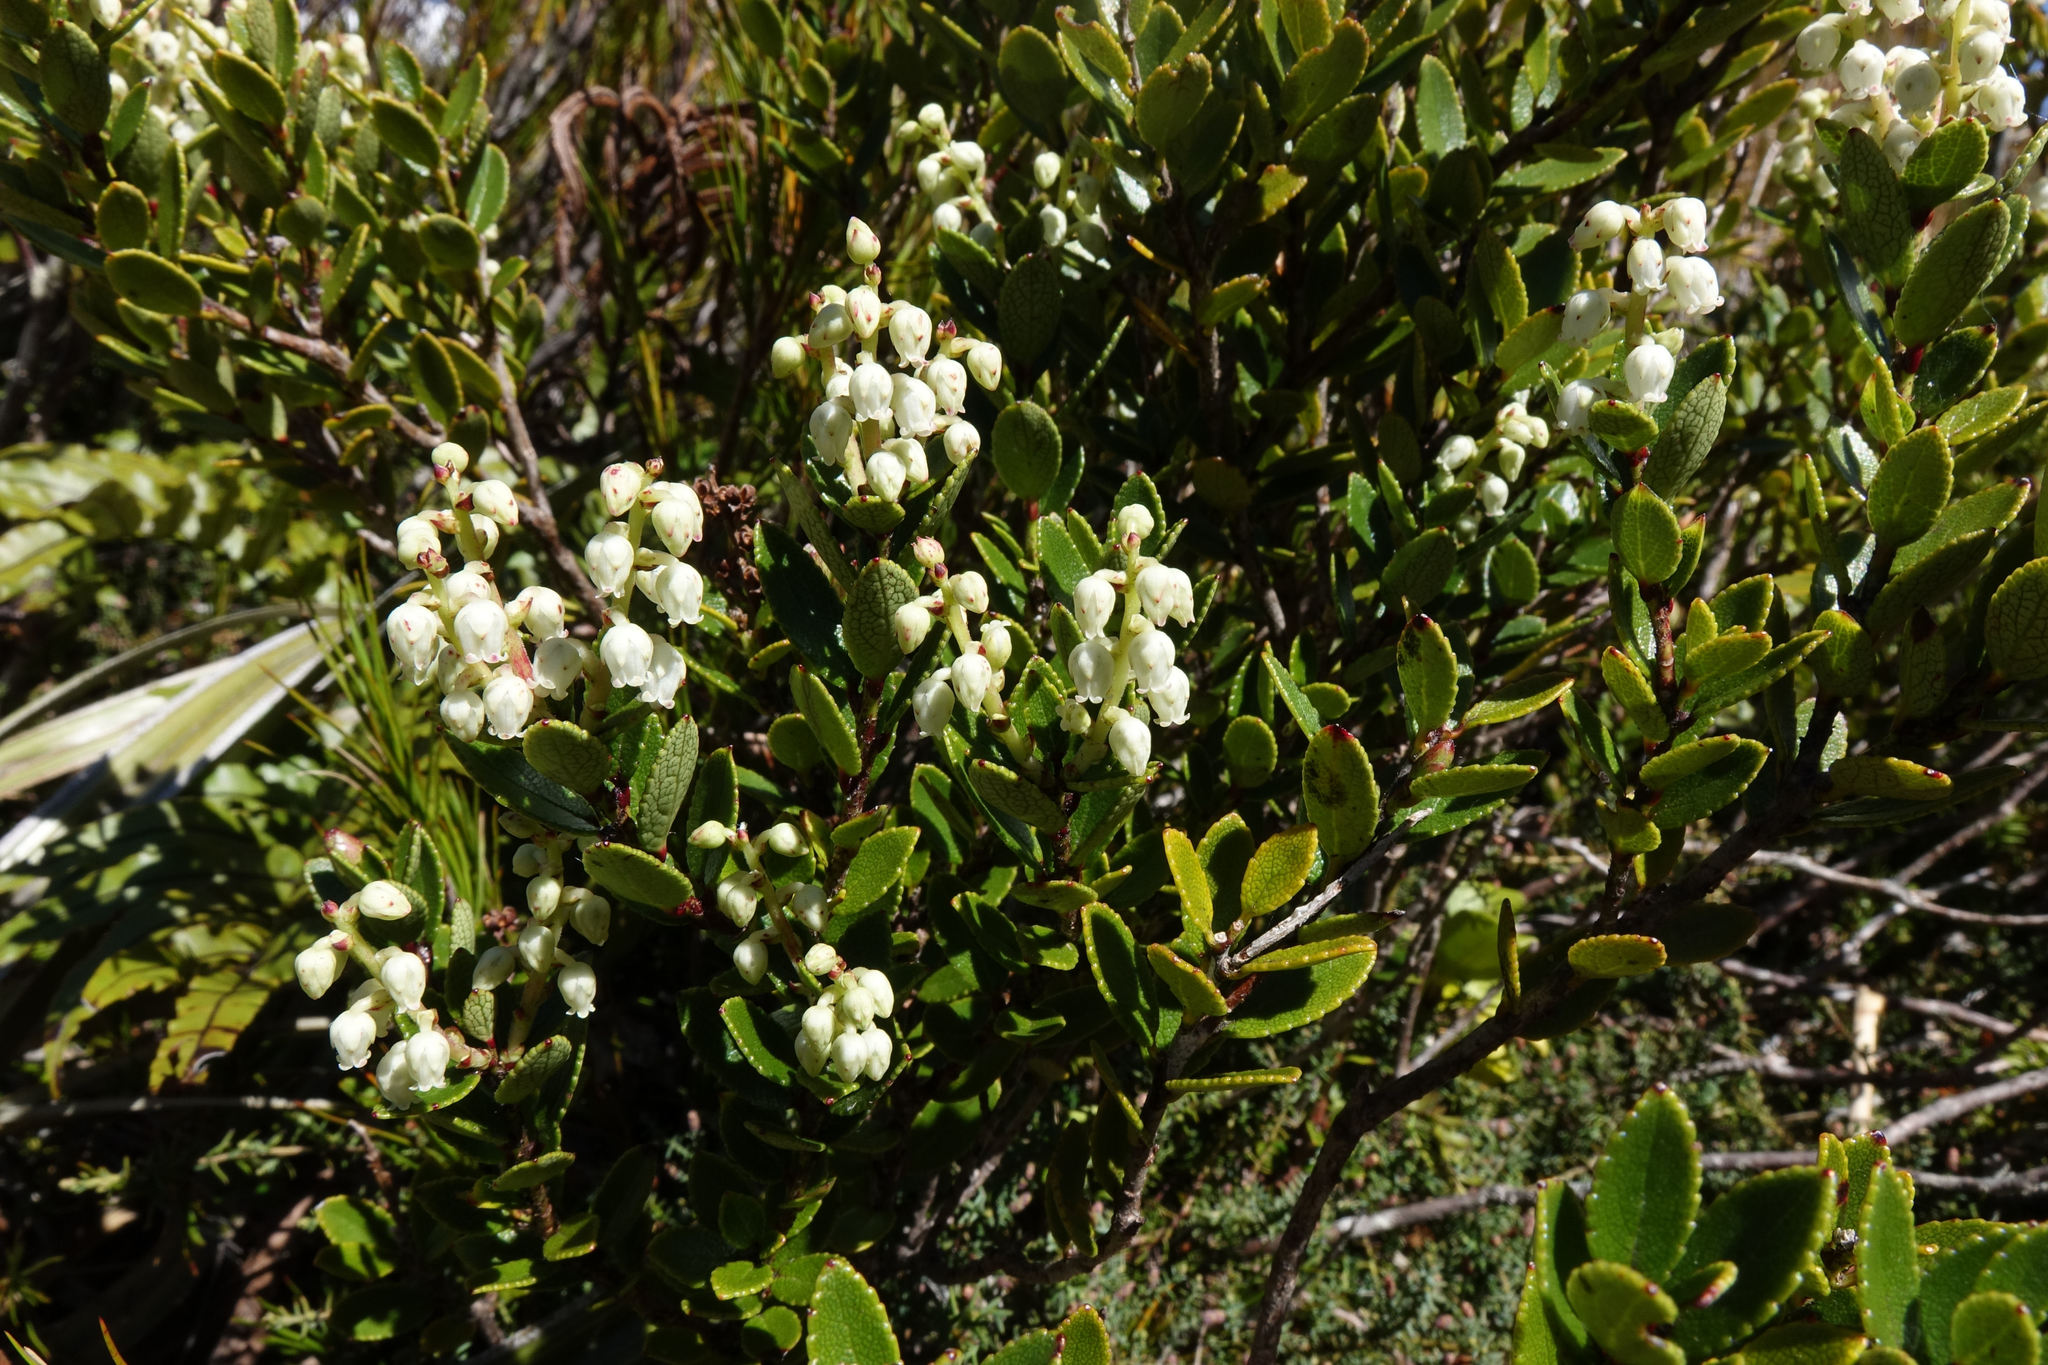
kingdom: Plantae
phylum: Tracheophyta
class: Magnoliopsida
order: Ericales
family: Ericaceae
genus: Gaultheria
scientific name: Gaultheria crassa
